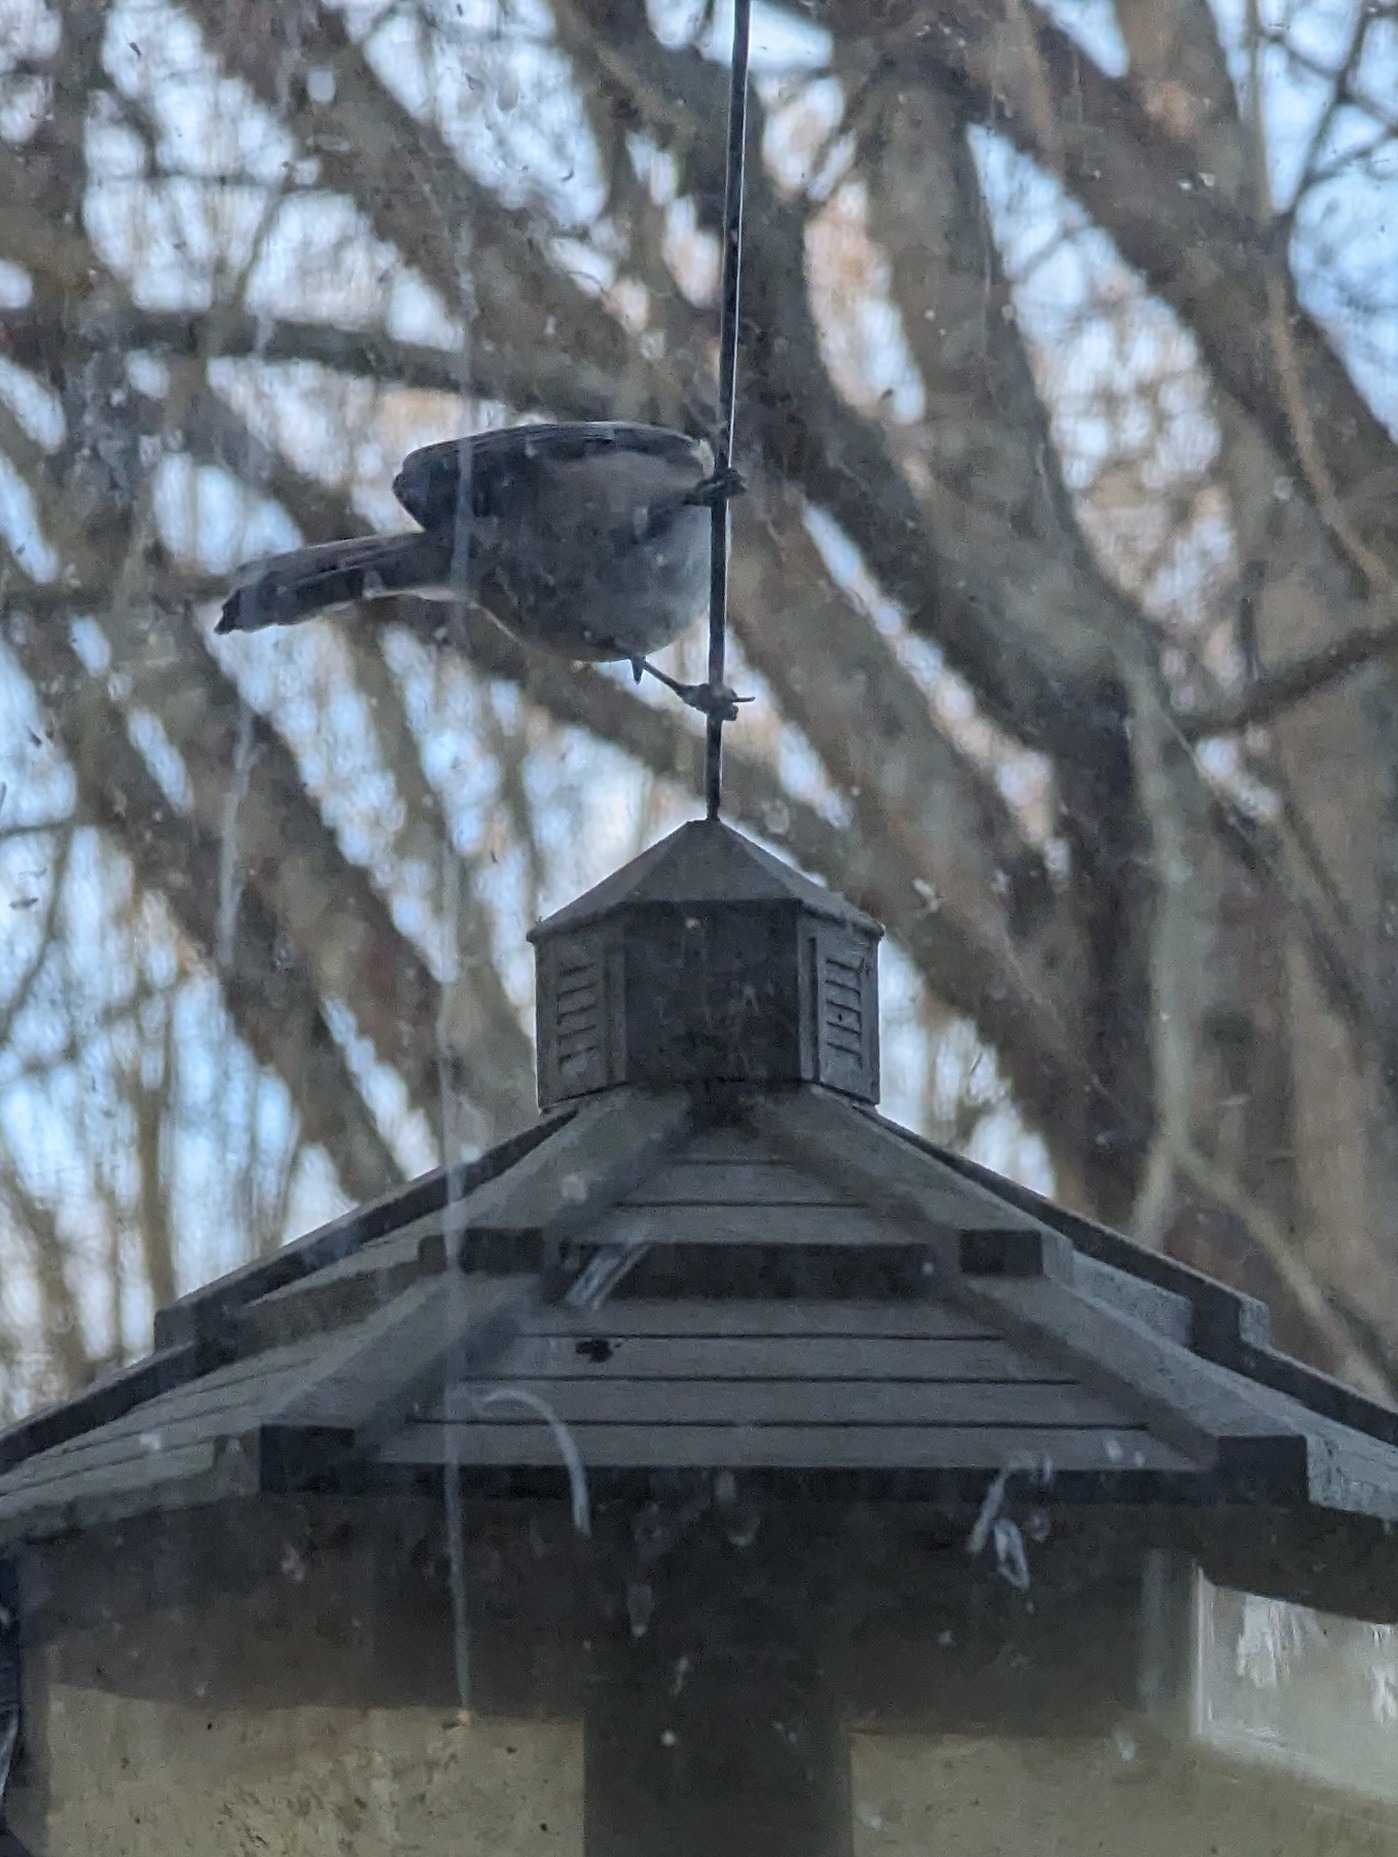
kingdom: Animalia
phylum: Chordata
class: Aves
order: Passeriformes
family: Paridae
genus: Poecile
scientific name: Poecile atricapillus
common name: Black-capped chickadee
